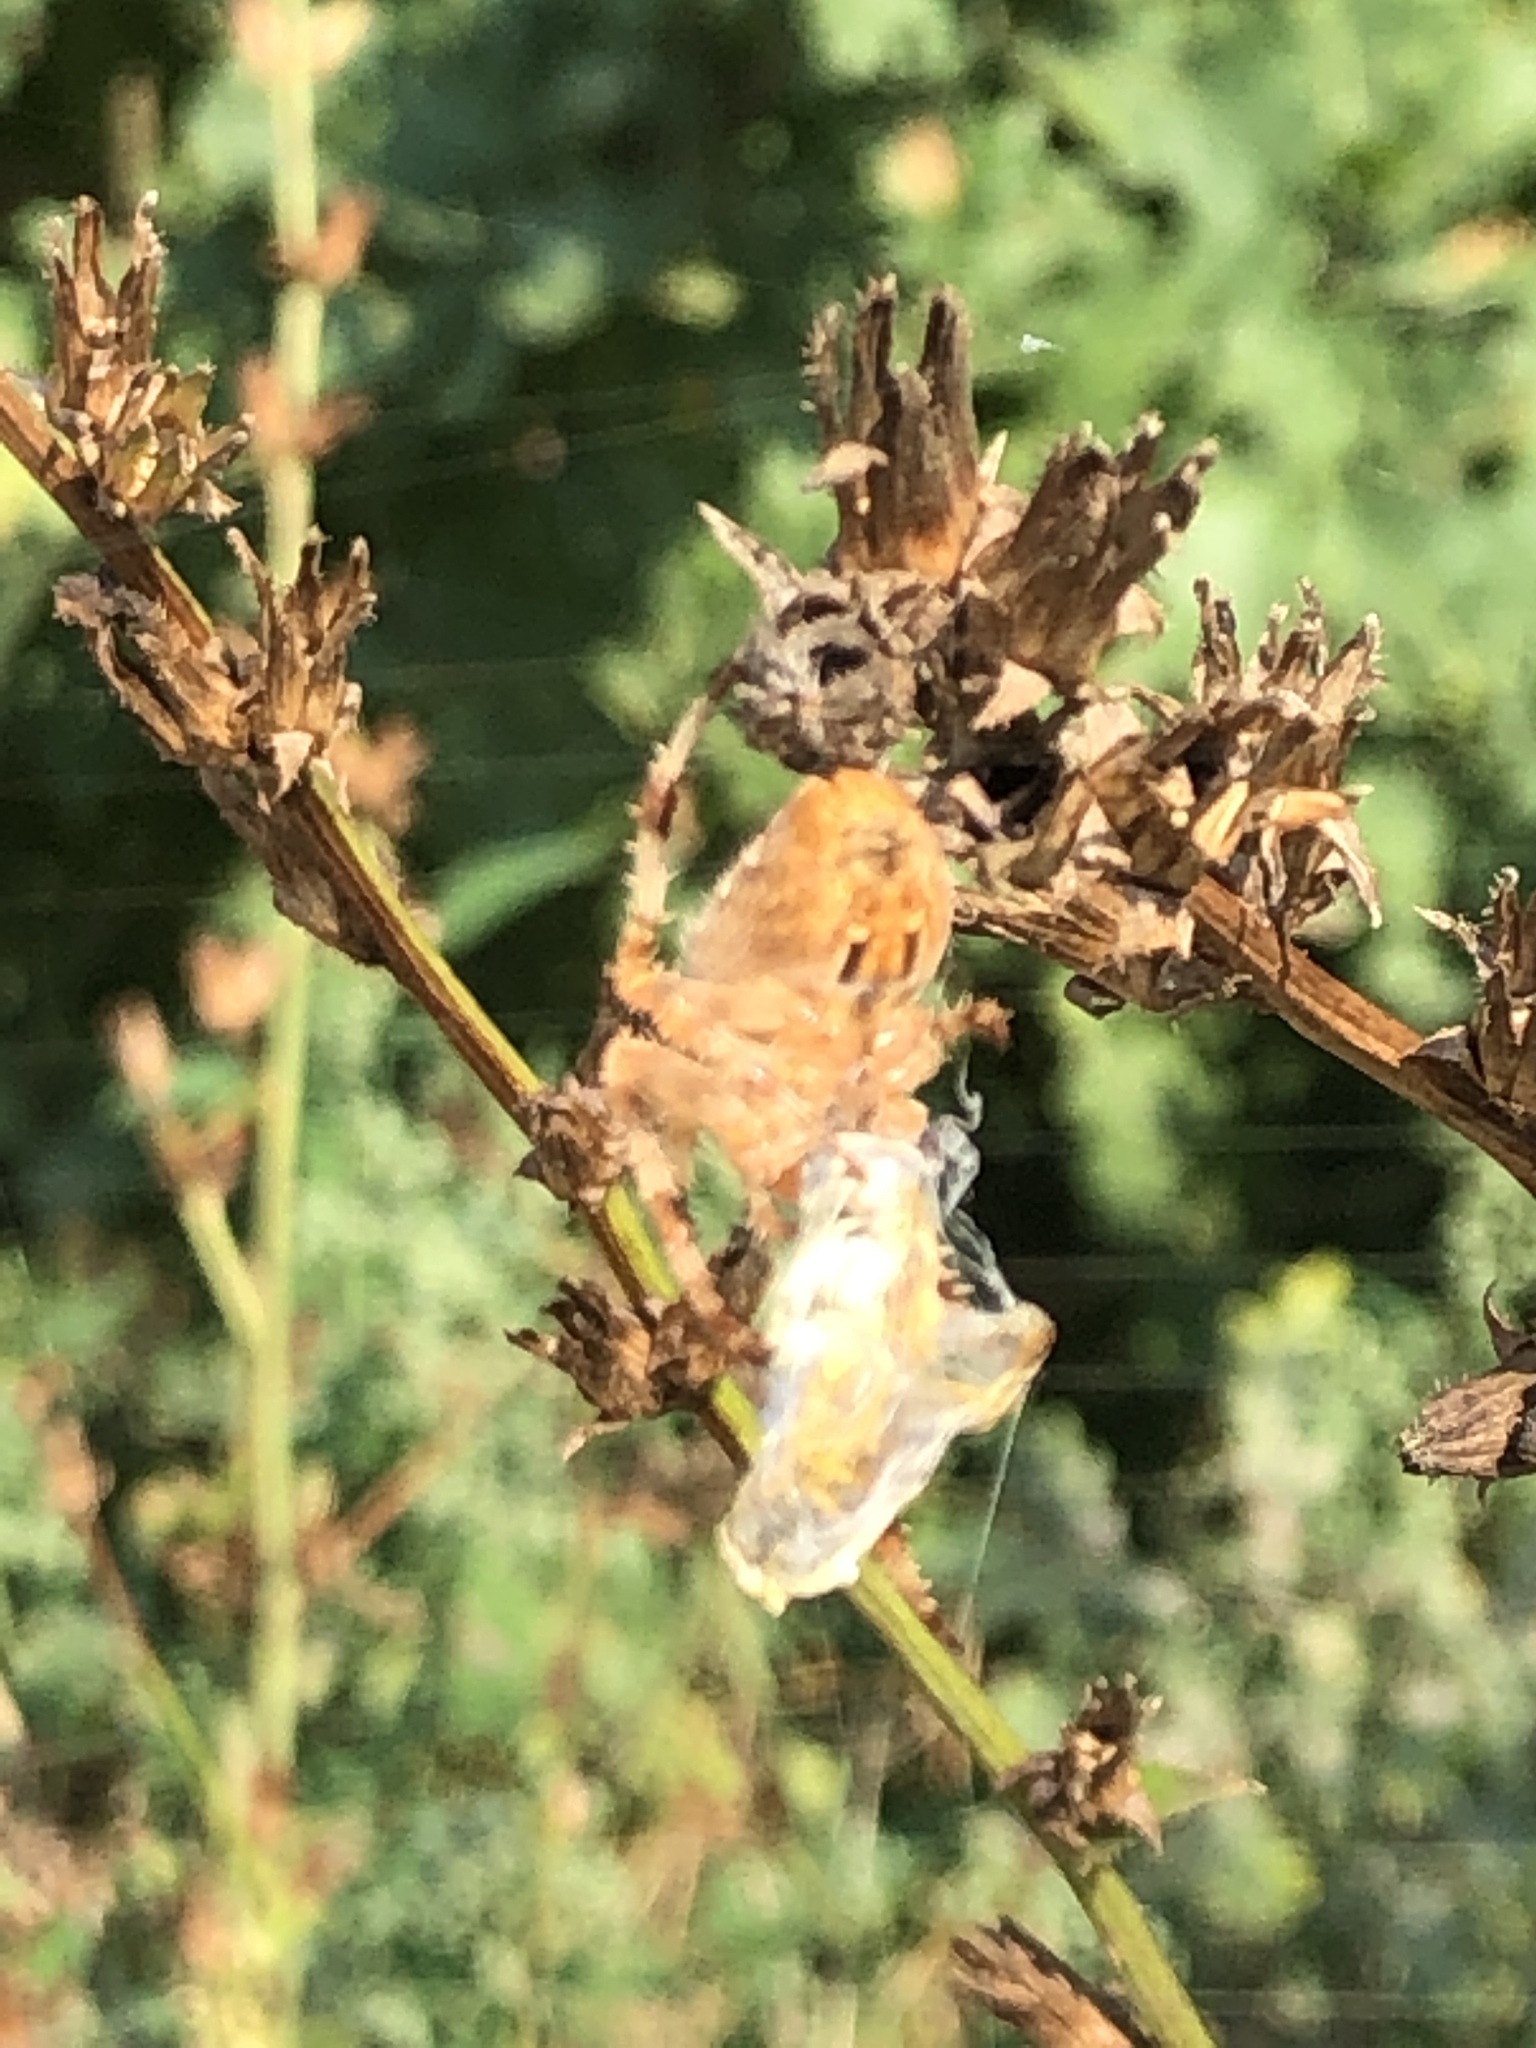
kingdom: Animalia
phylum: Arthropoda
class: Arachnida
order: Araneae
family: Araneidae
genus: Araneus
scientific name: Araneus diadematus
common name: Cross orbweaver
